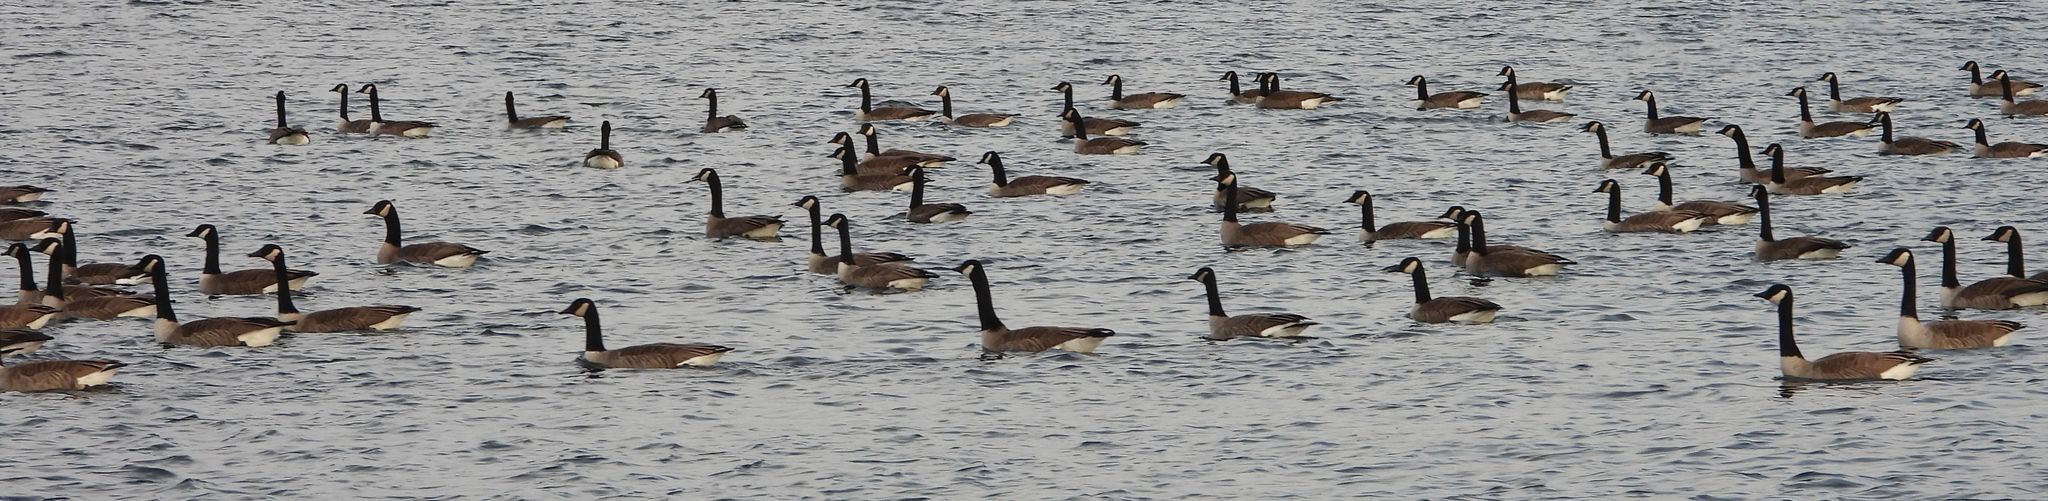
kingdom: Animalia
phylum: Chordata
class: Aves
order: Anseriformes
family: Anatidae
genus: Branta
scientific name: Branta canadensis
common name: Canada goose
